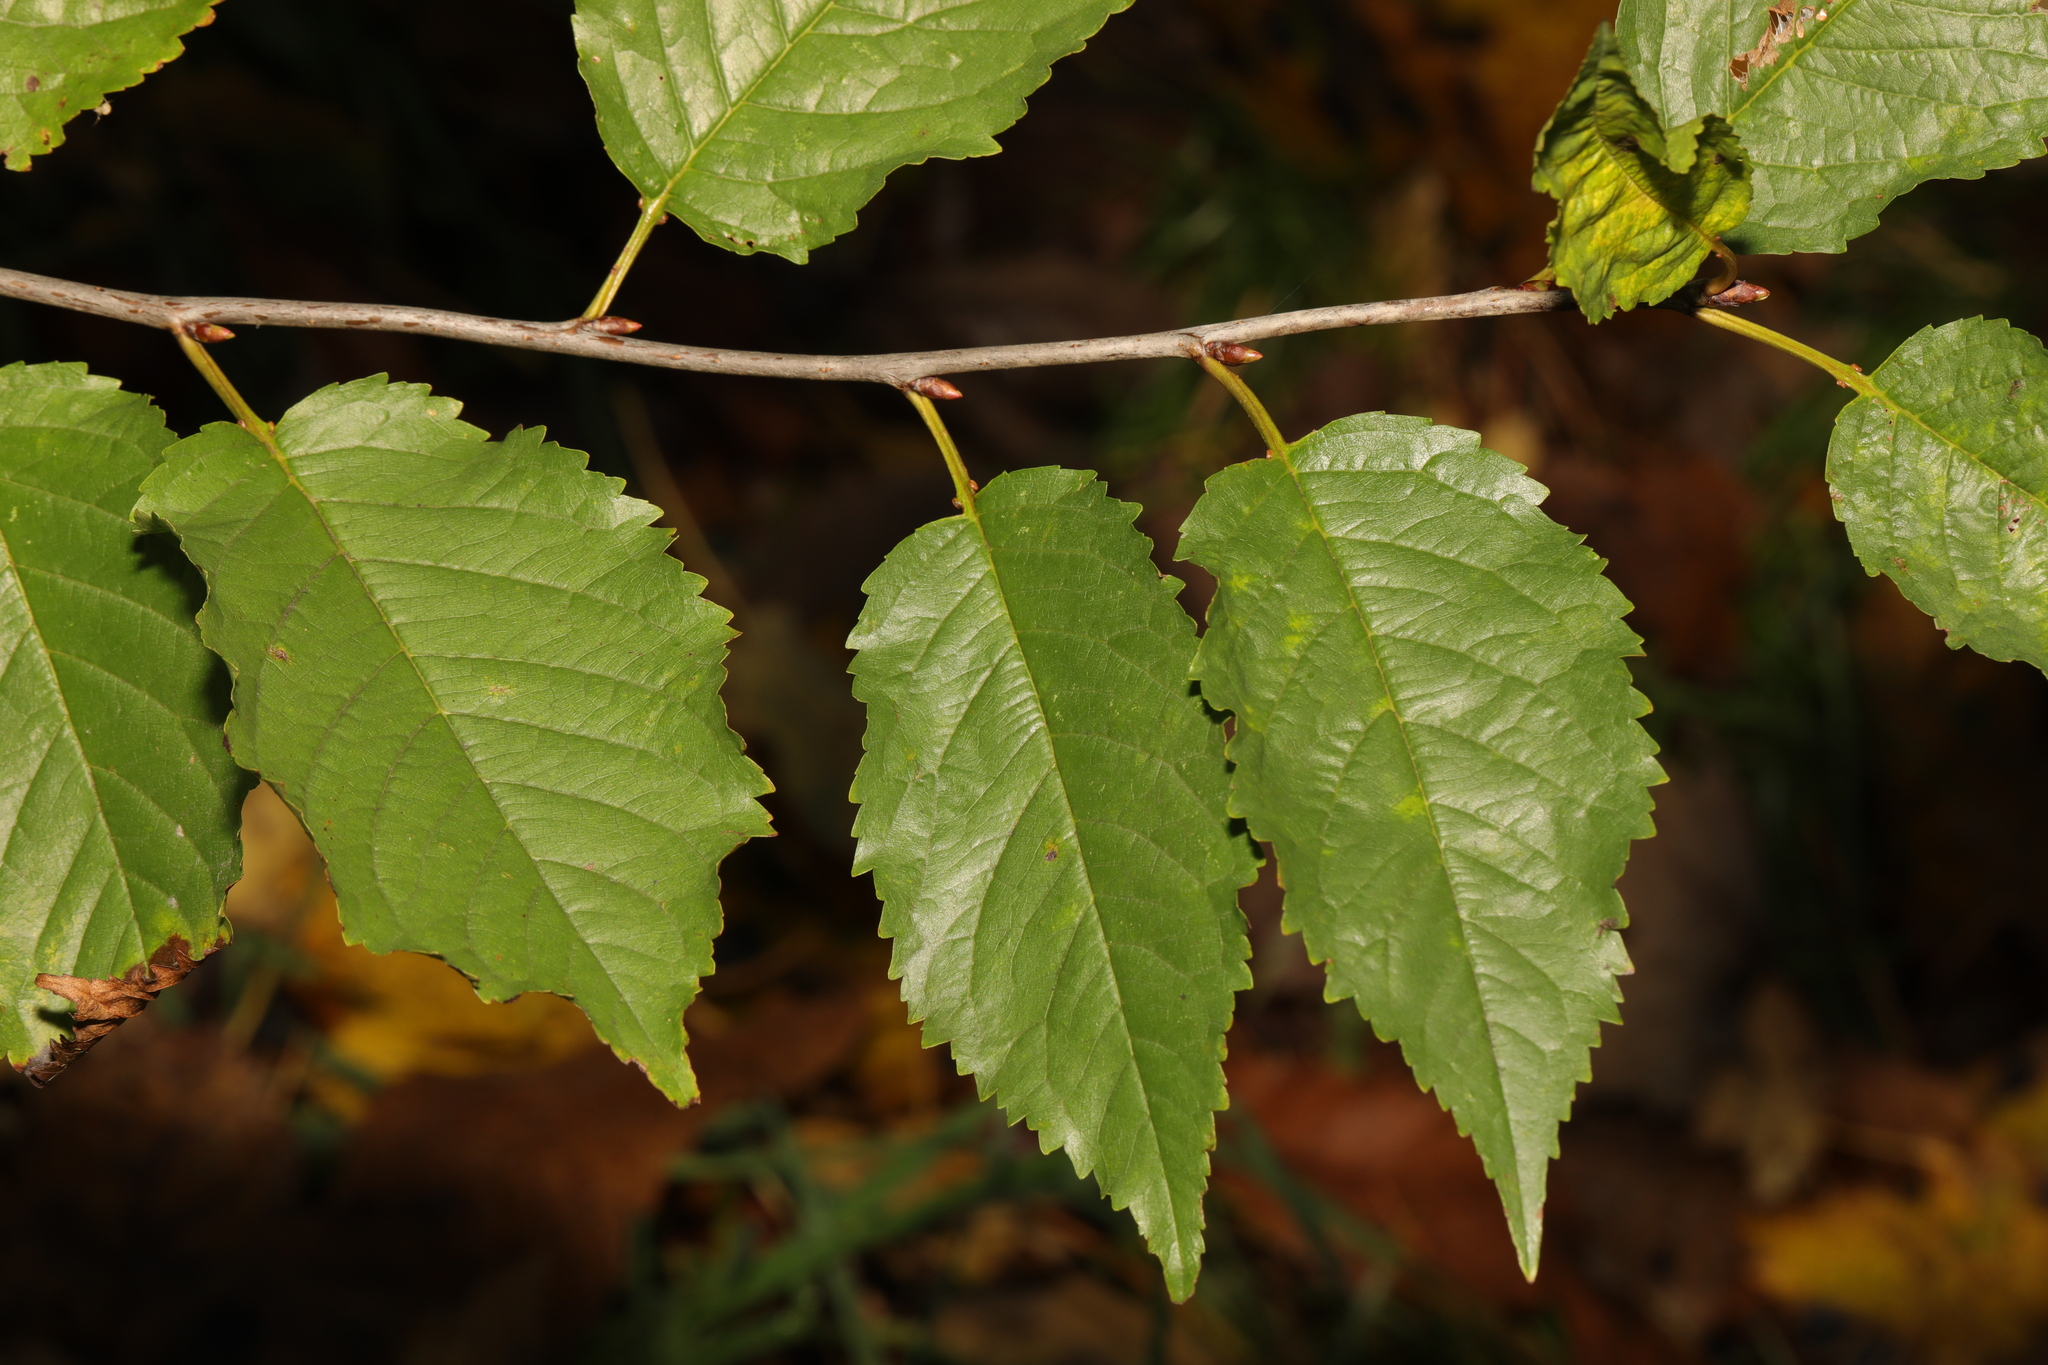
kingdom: Plantae
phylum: Tracheophyta
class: Magnoliopsida
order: Rosales
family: Rosaceae
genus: Prunus
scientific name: Prunus avium
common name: Sweet cherry
